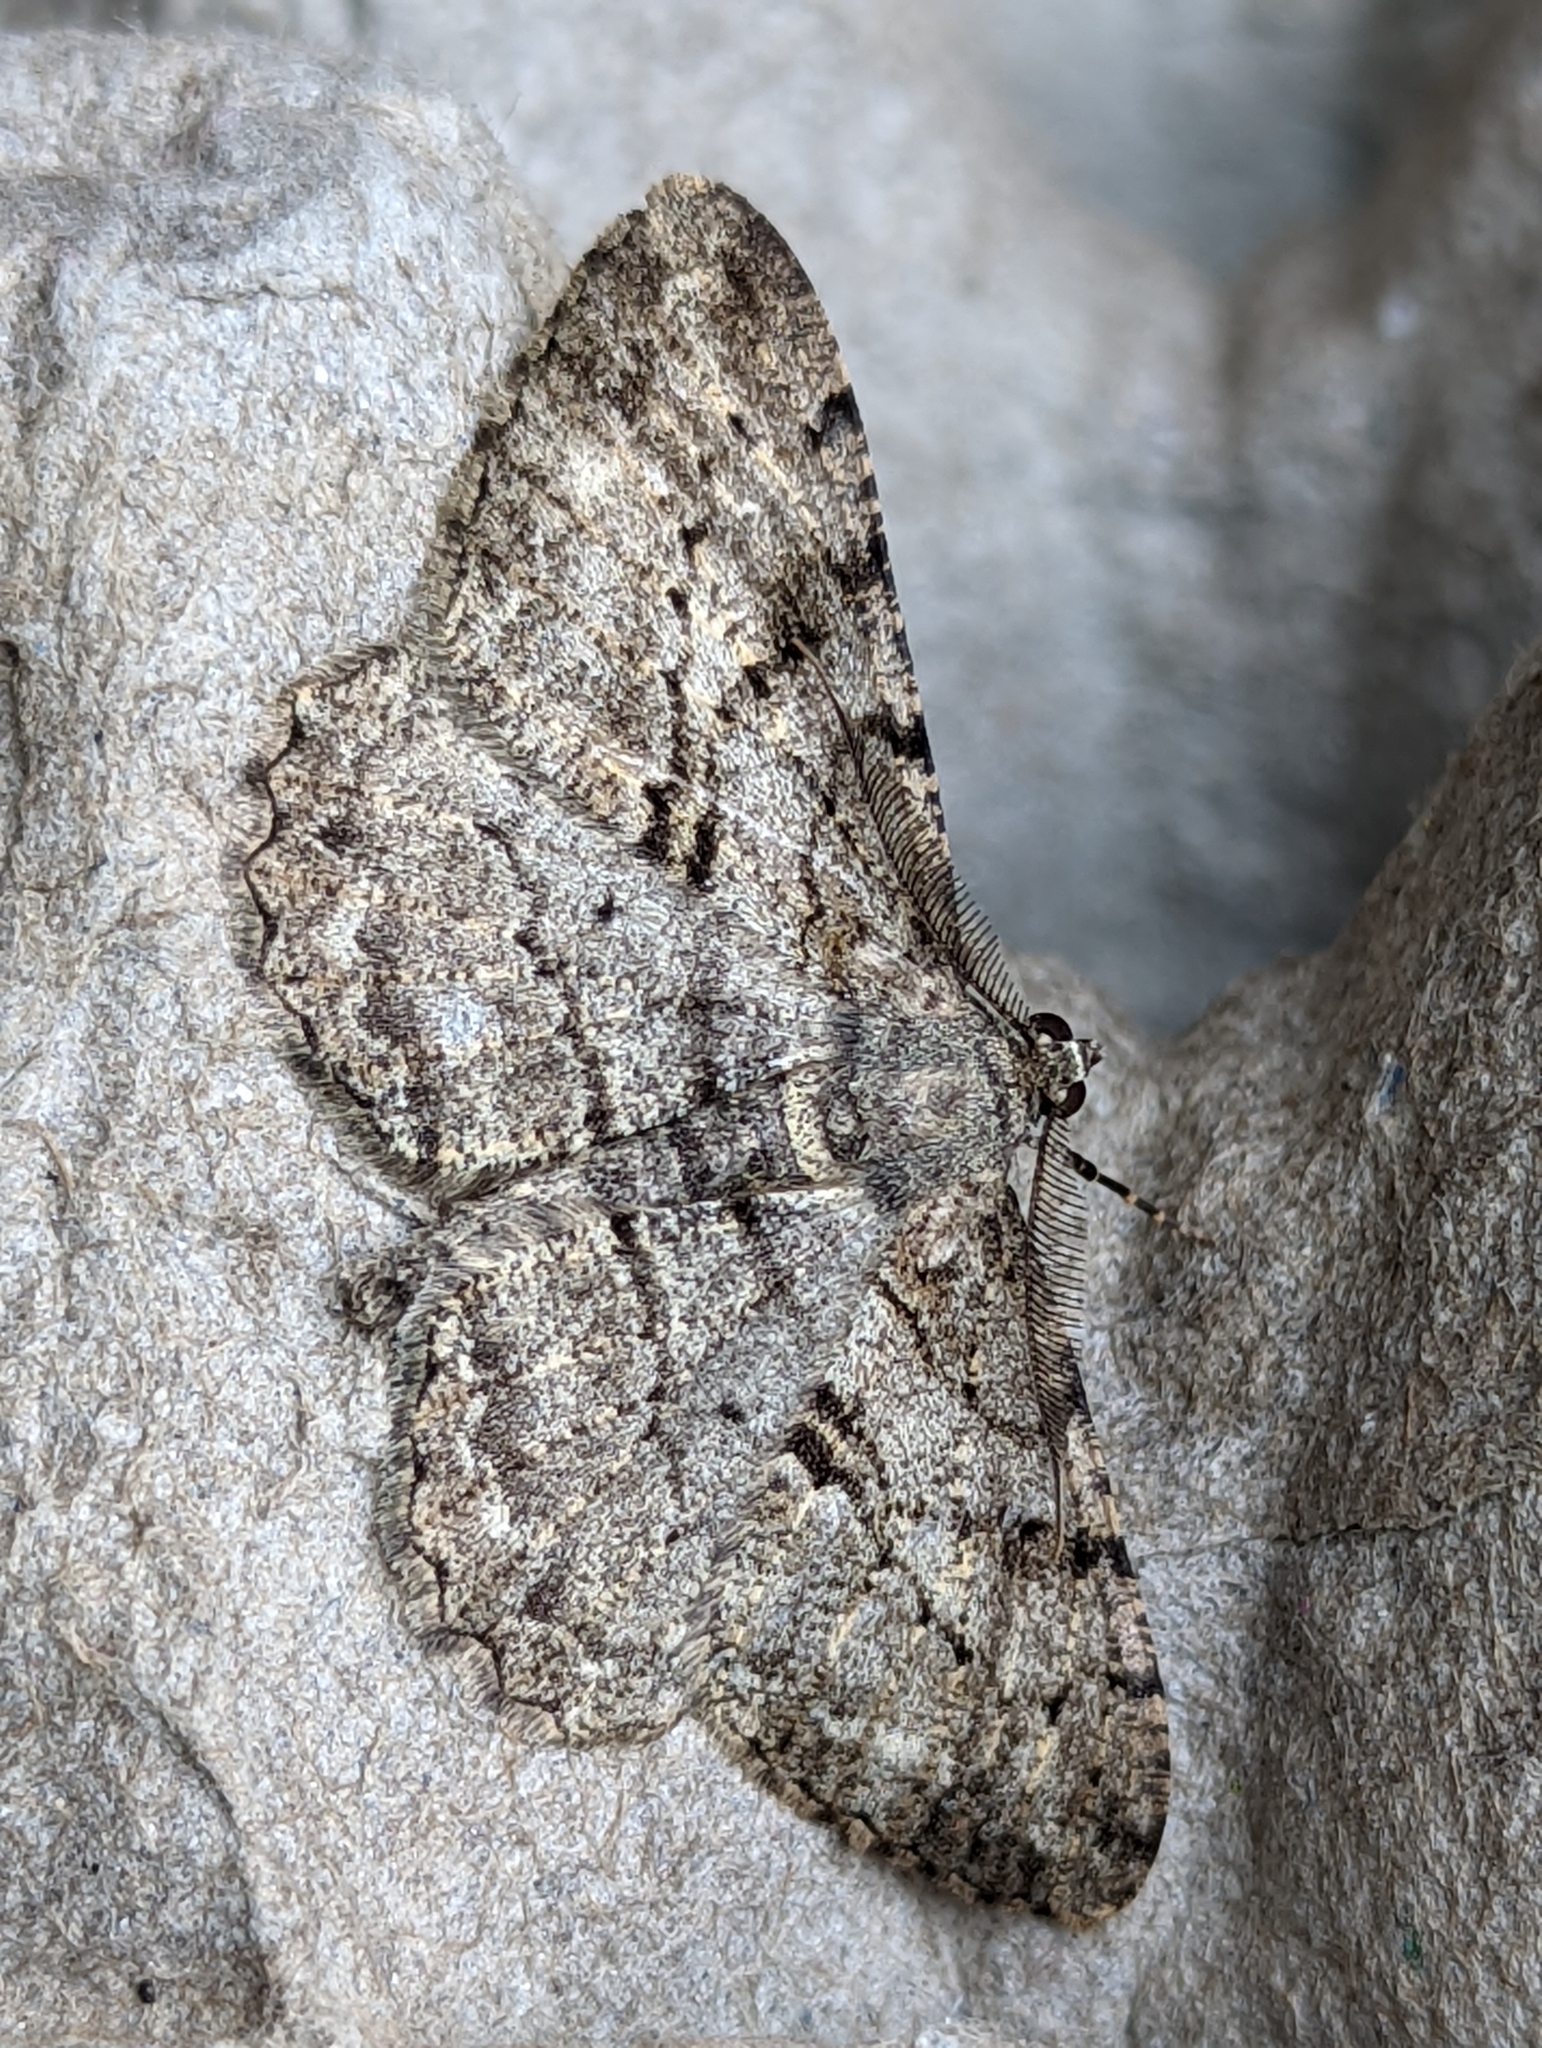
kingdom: Animalia
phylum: Arthropoda
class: Insecta
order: Lepidoptera
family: Geometridae
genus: Peribatodes
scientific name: Peribatodes rhomboidaria
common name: Willow beauty
